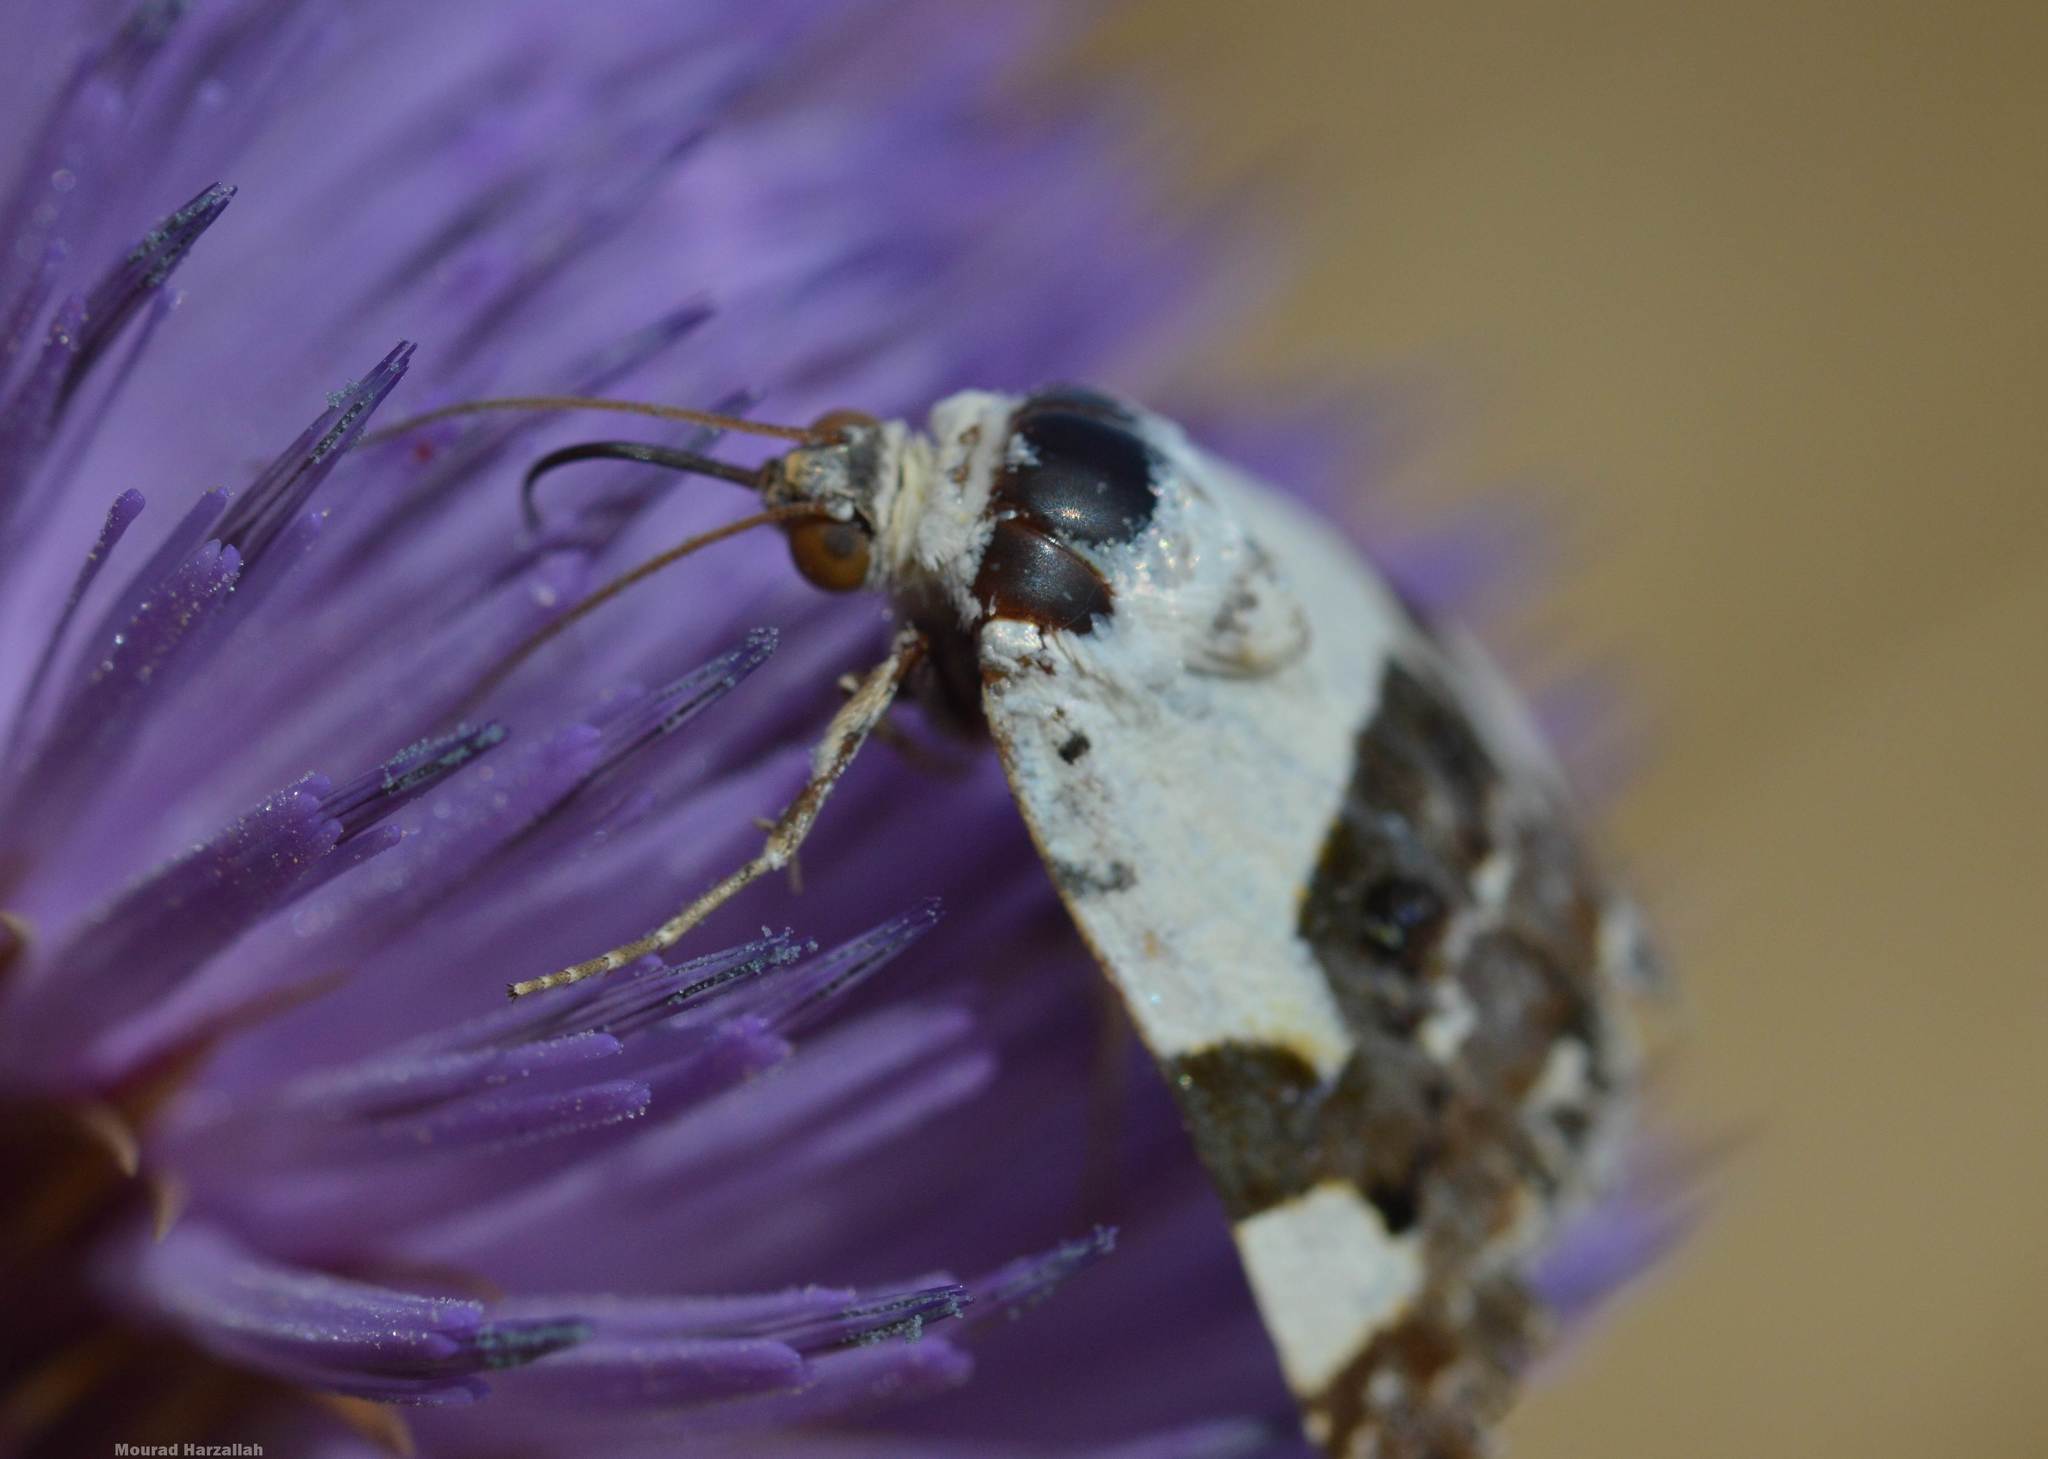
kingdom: Animalia
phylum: Arthropoda
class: Insecta
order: Lepidoptera
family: Noctuidae
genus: Acontia
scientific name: Acontia lucida
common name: Pale shoulder
